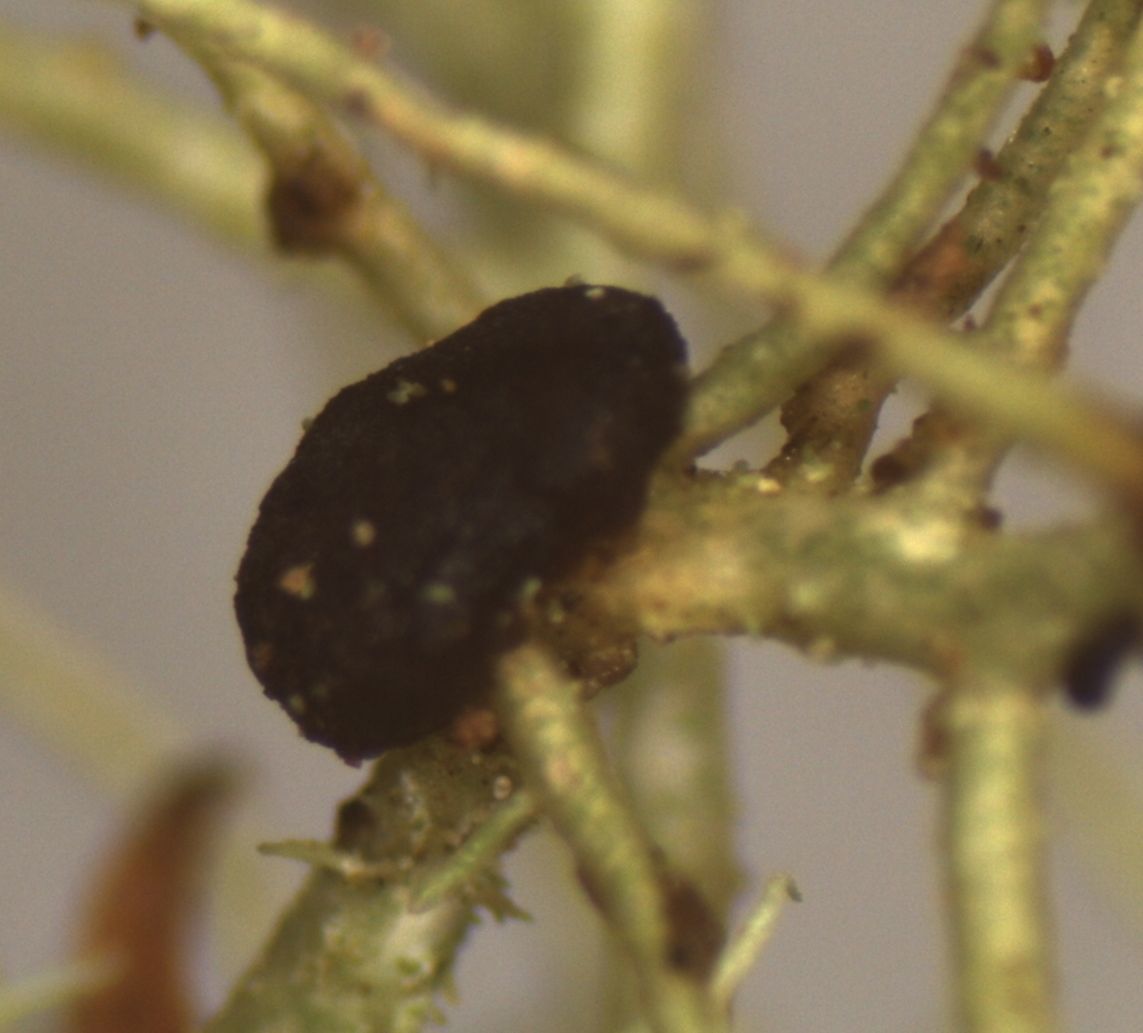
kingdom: Fungi
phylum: Basidiomycota
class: Tremellomycetes
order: Tremellales
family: Bulleraceae
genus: Biatoropsis
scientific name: Biatoropsis usnearum
